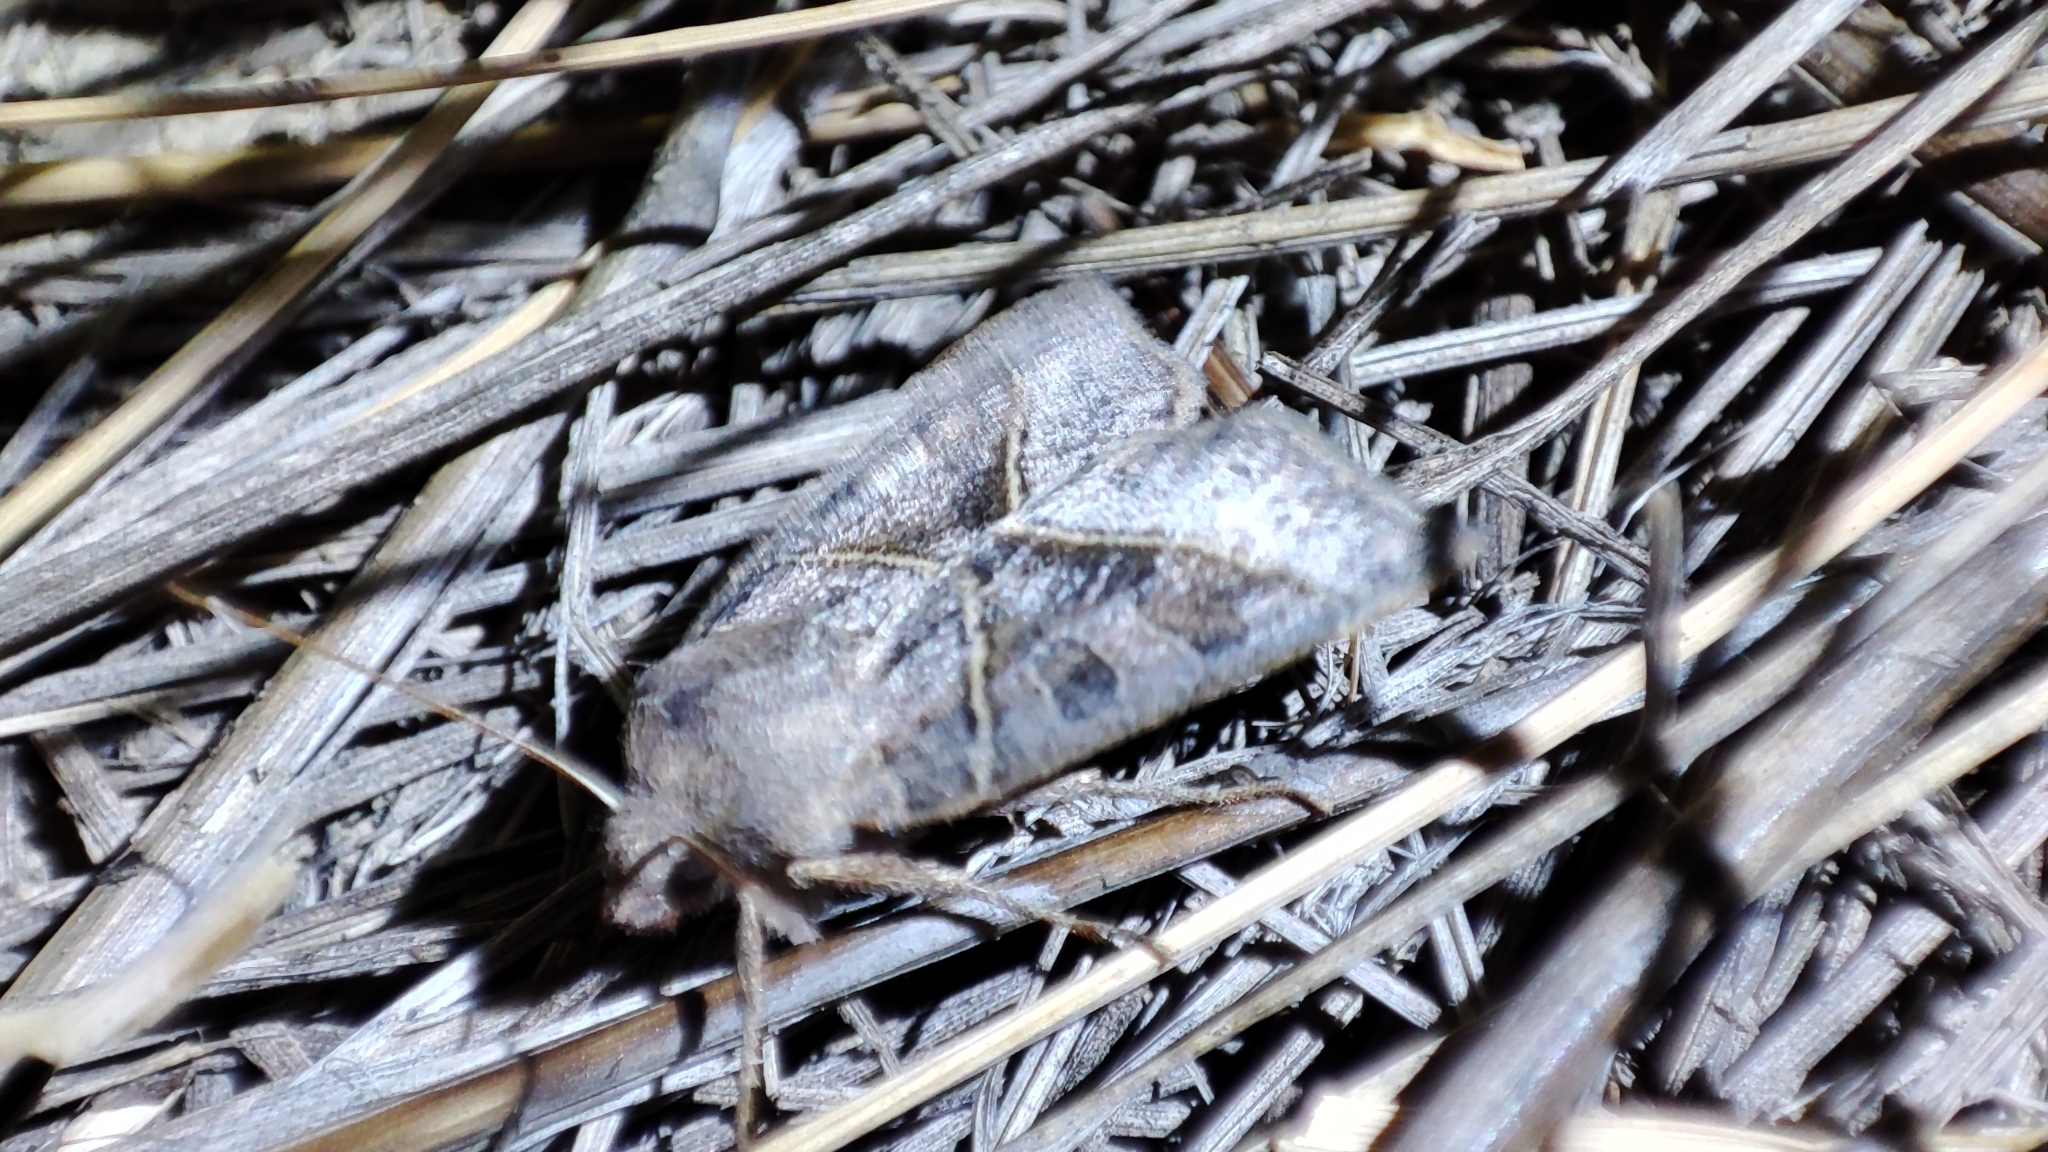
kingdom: Animalia
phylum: Arthropoda
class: Insecta
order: Lepidoptera
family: Noctuidae
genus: Mesogona
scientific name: Mesogona oxalina
